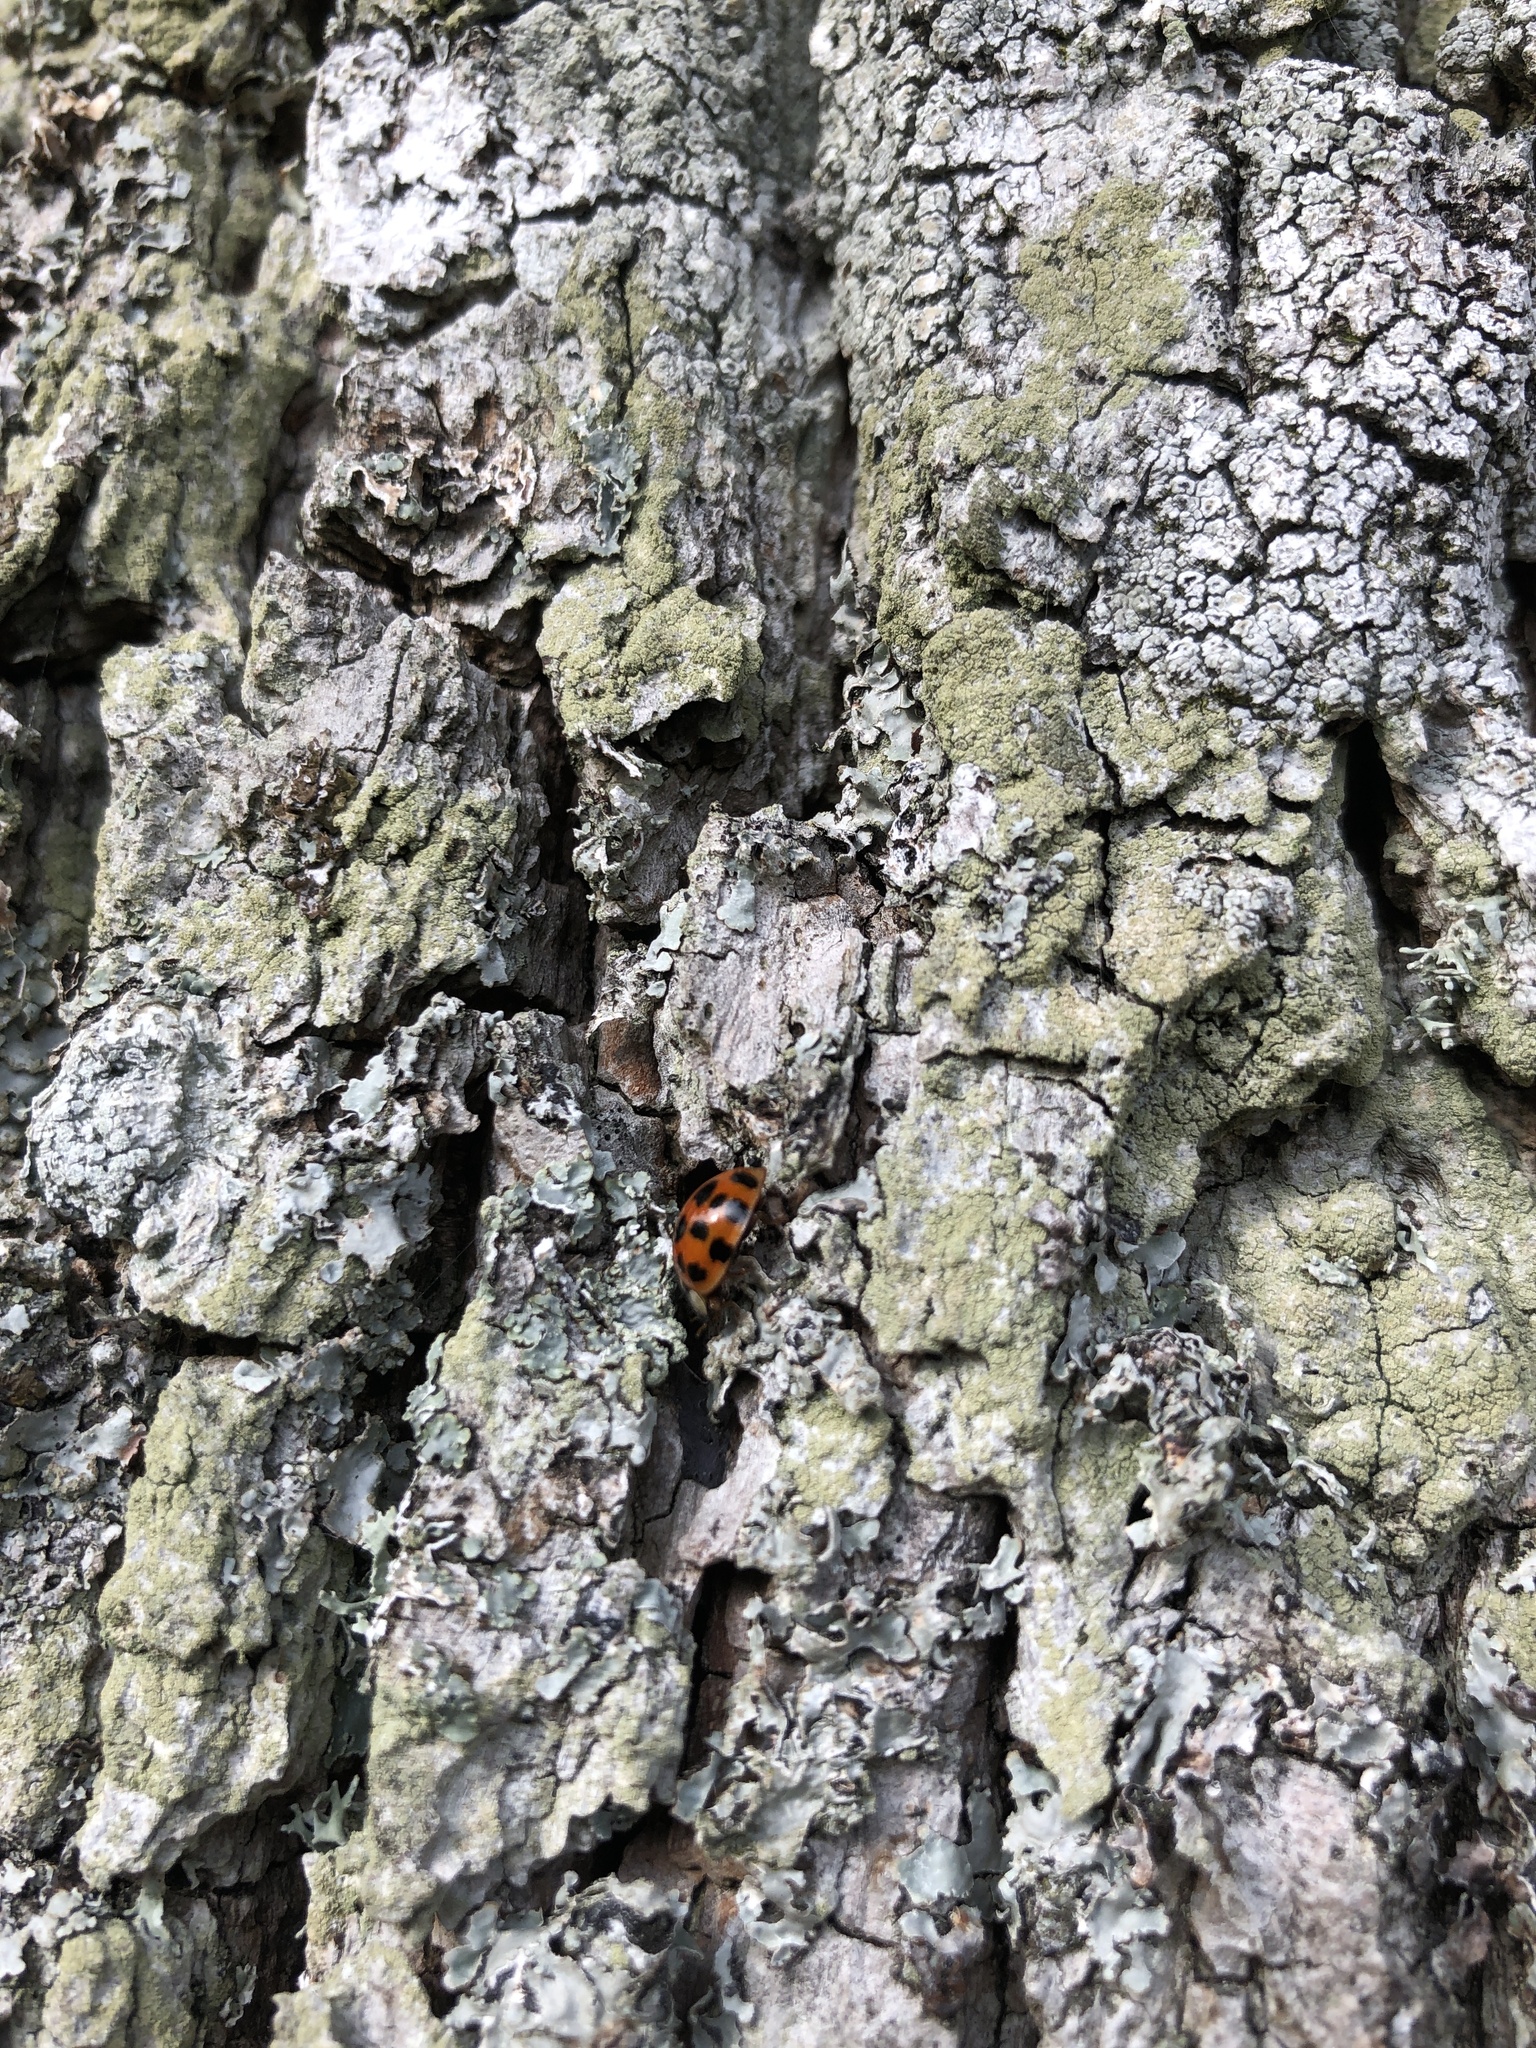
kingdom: Animalia
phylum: Arthropoda
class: Insecta
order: Coleoptera
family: Coccinellidae
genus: Harmonia
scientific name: Harmonia axyridis
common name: Harlequin ladybird
